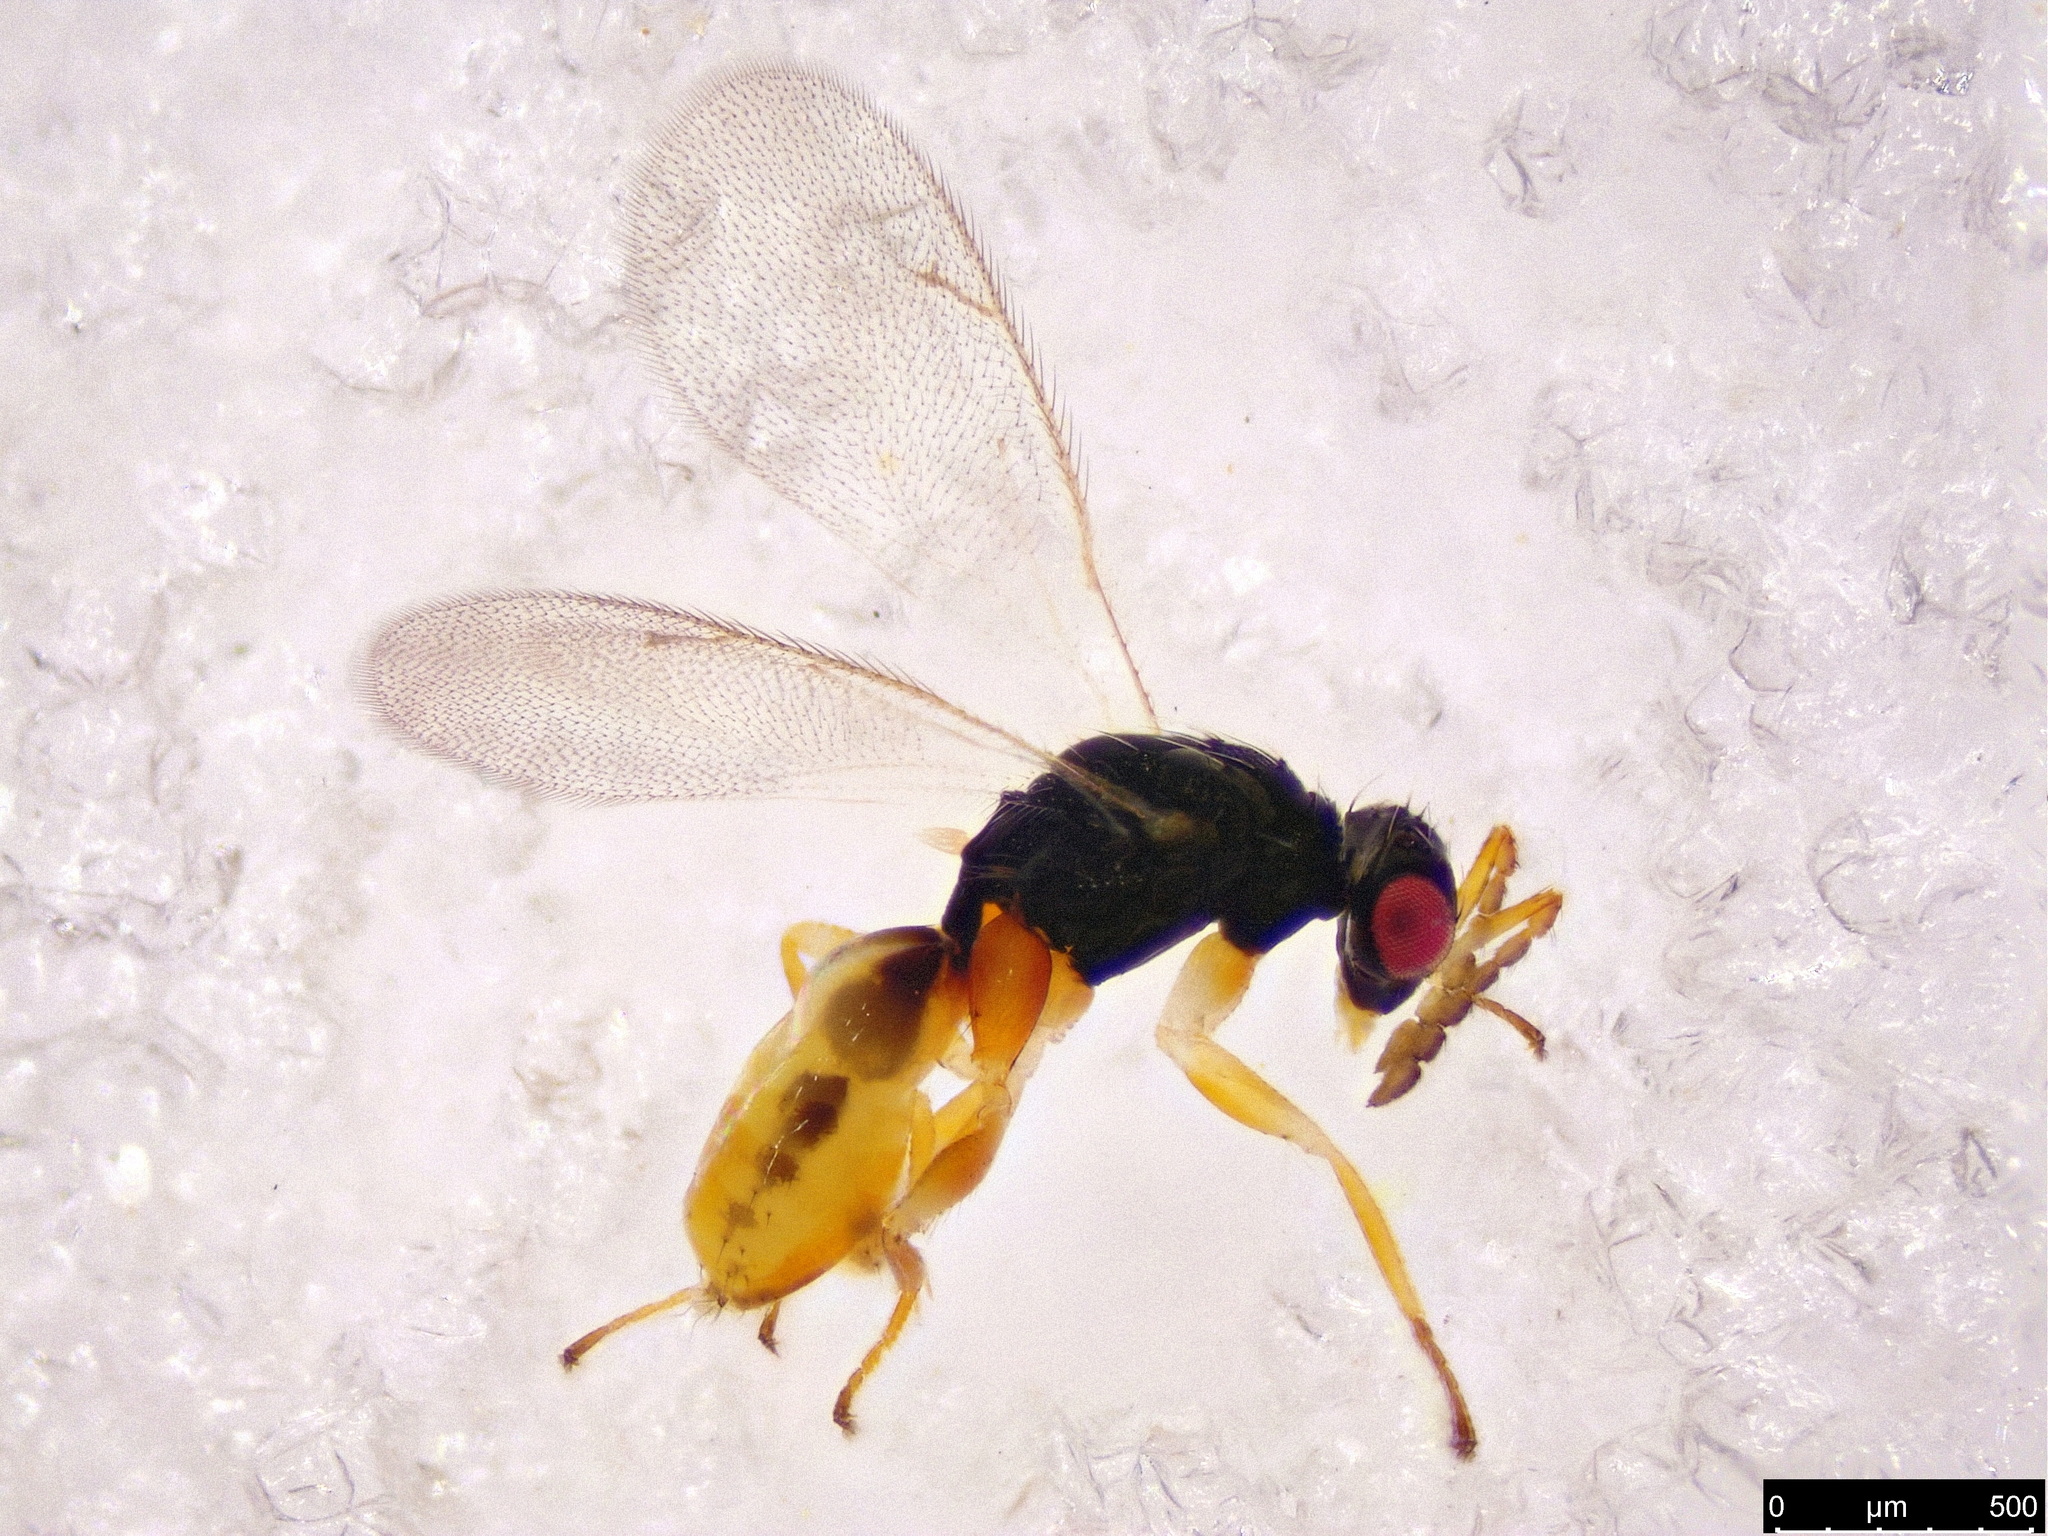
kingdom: Animalia
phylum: Arthropoda
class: Insecta
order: Hymenoptera
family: Eulophidae
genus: Euplectrus
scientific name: Euplectrus
